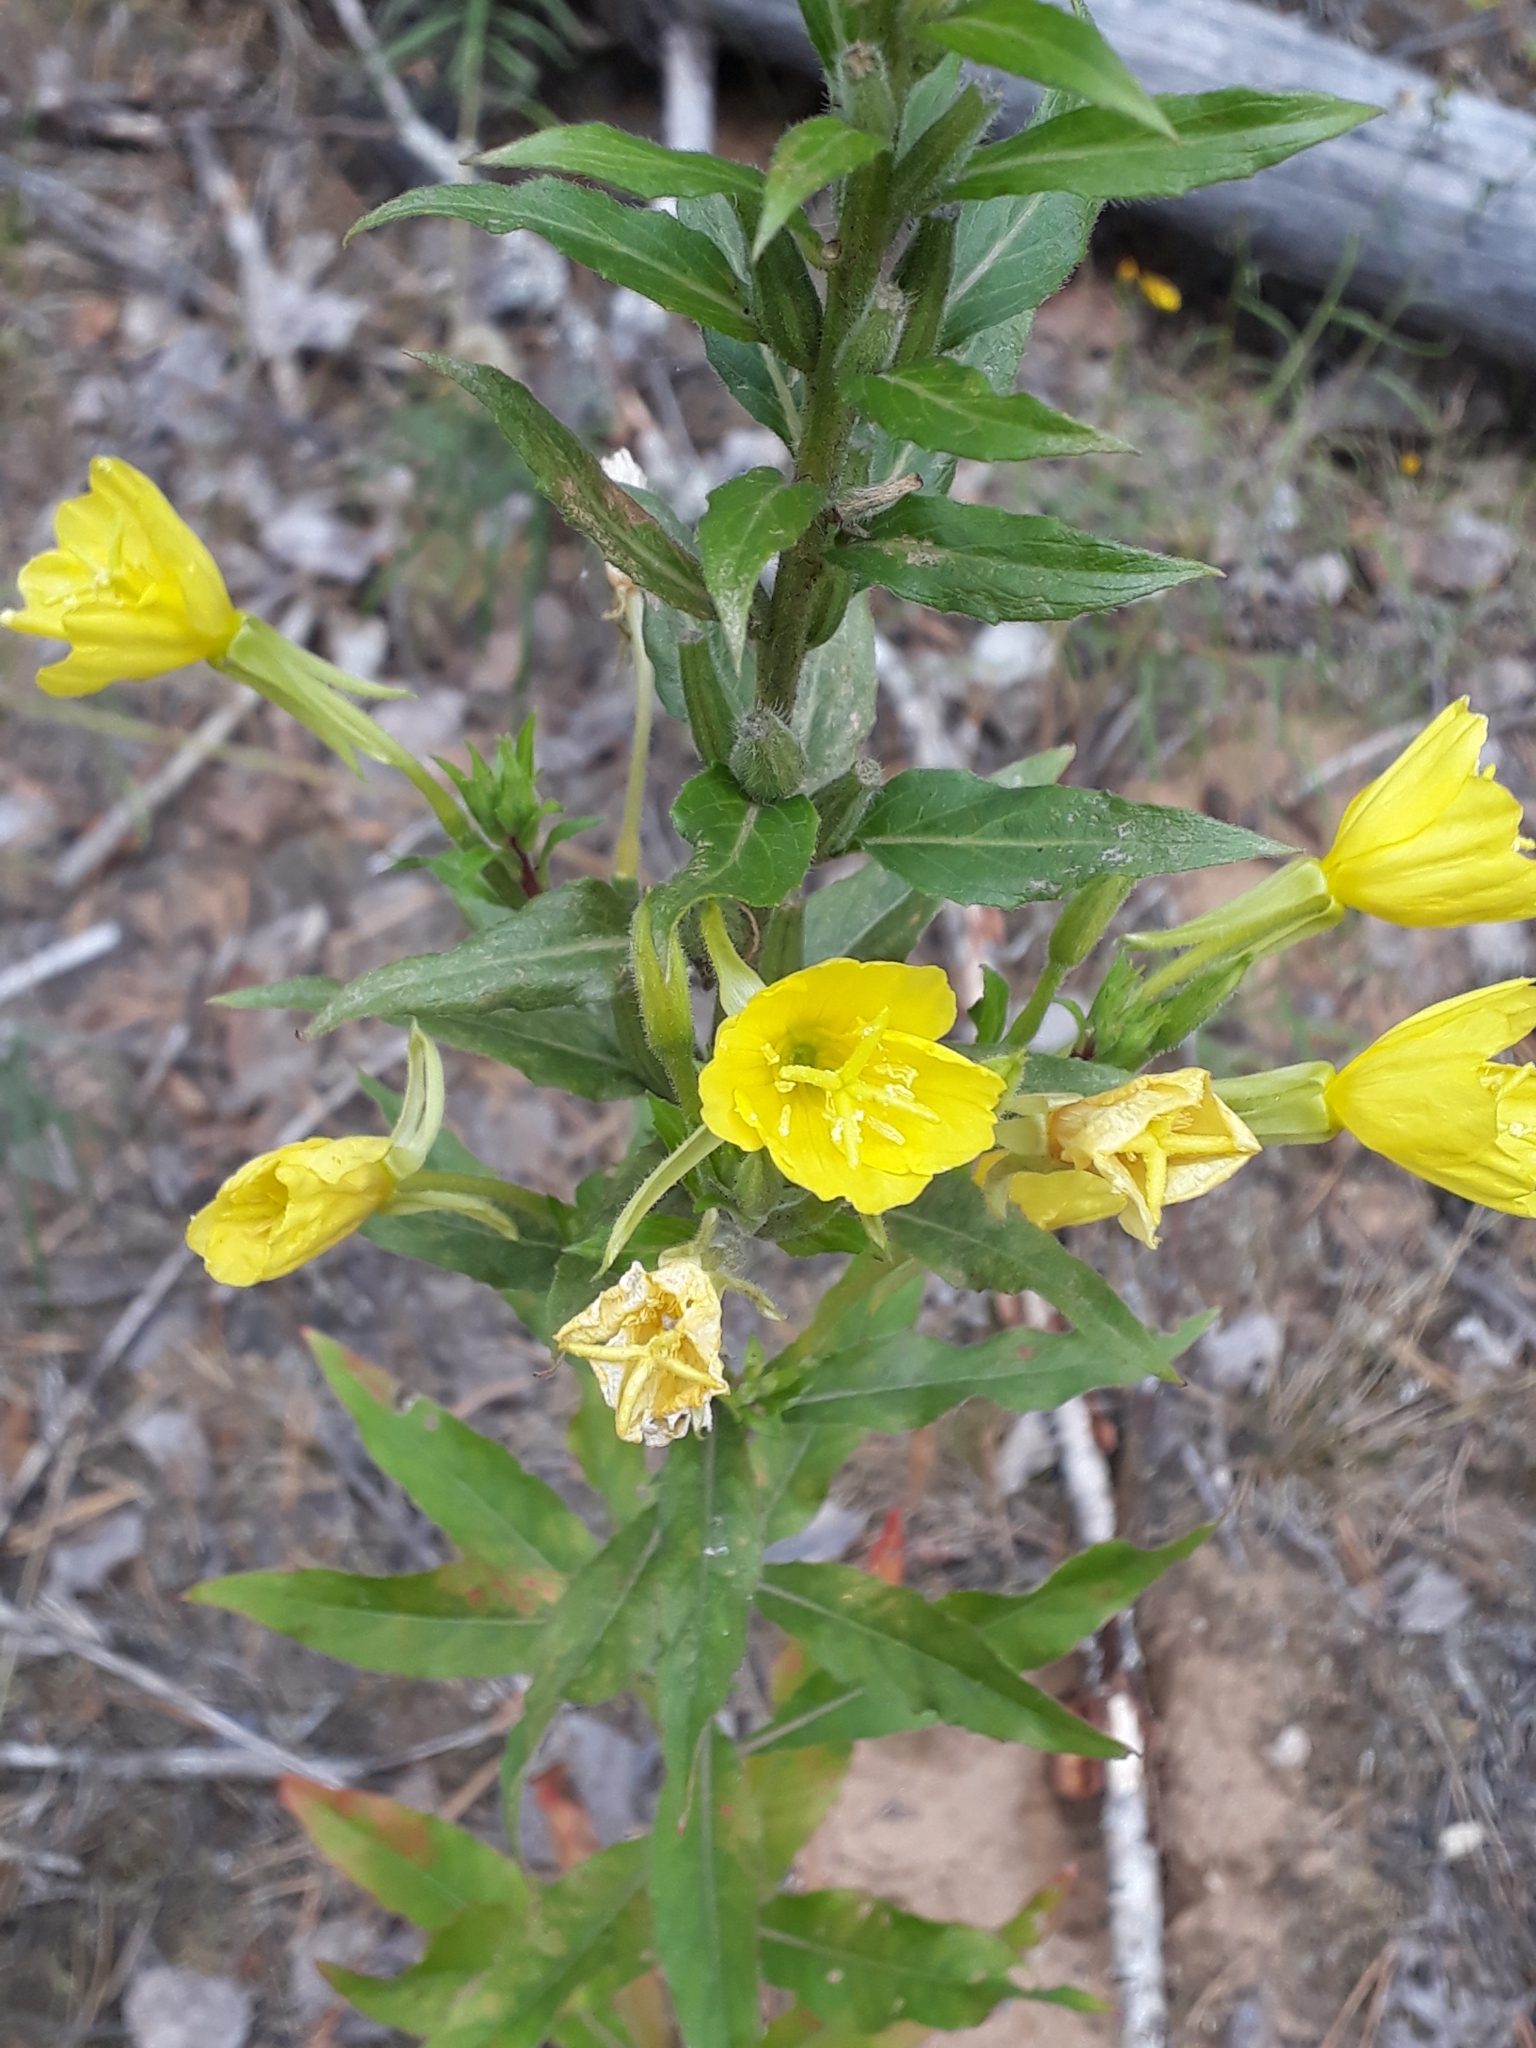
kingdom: Plantae
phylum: Tracheophyta
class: Magnoliopsida
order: Myrtales
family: Onagraceae
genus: Oenothera
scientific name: Oenothera rubricaulis
